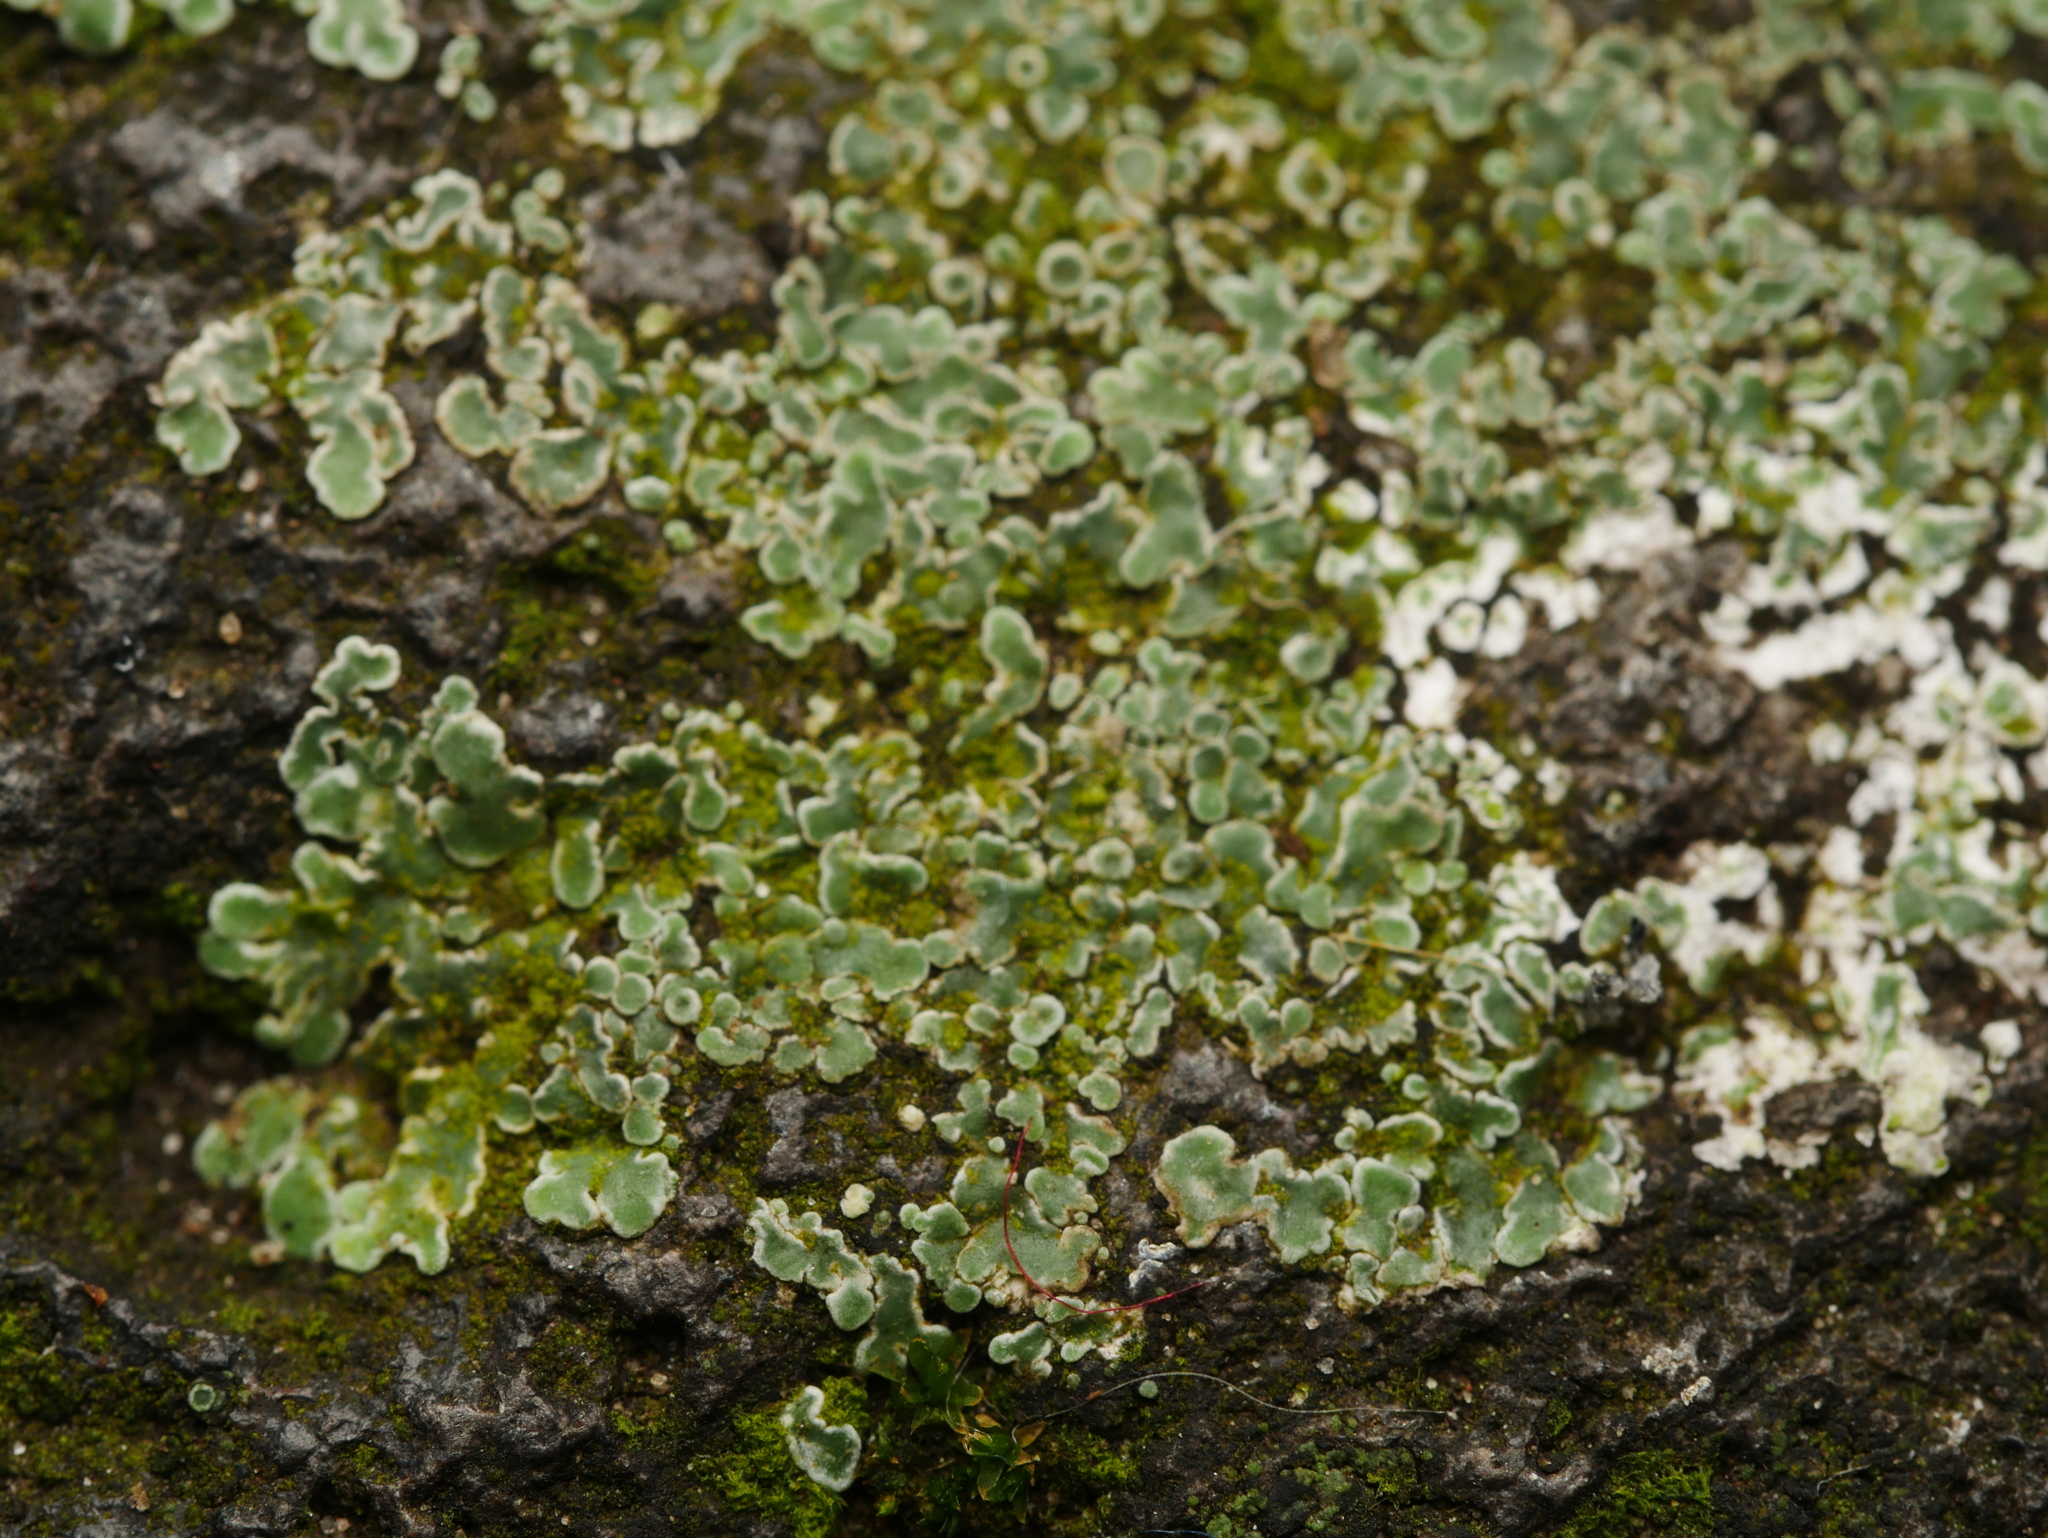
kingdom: Fungi
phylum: Ascomycota
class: Lecanoromycetes
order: Lecanorales
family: Lecanoraceae
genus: Protoparmeliopsis
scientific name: Protoparmeliopsis muralis
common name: Stonewall rim lichen
